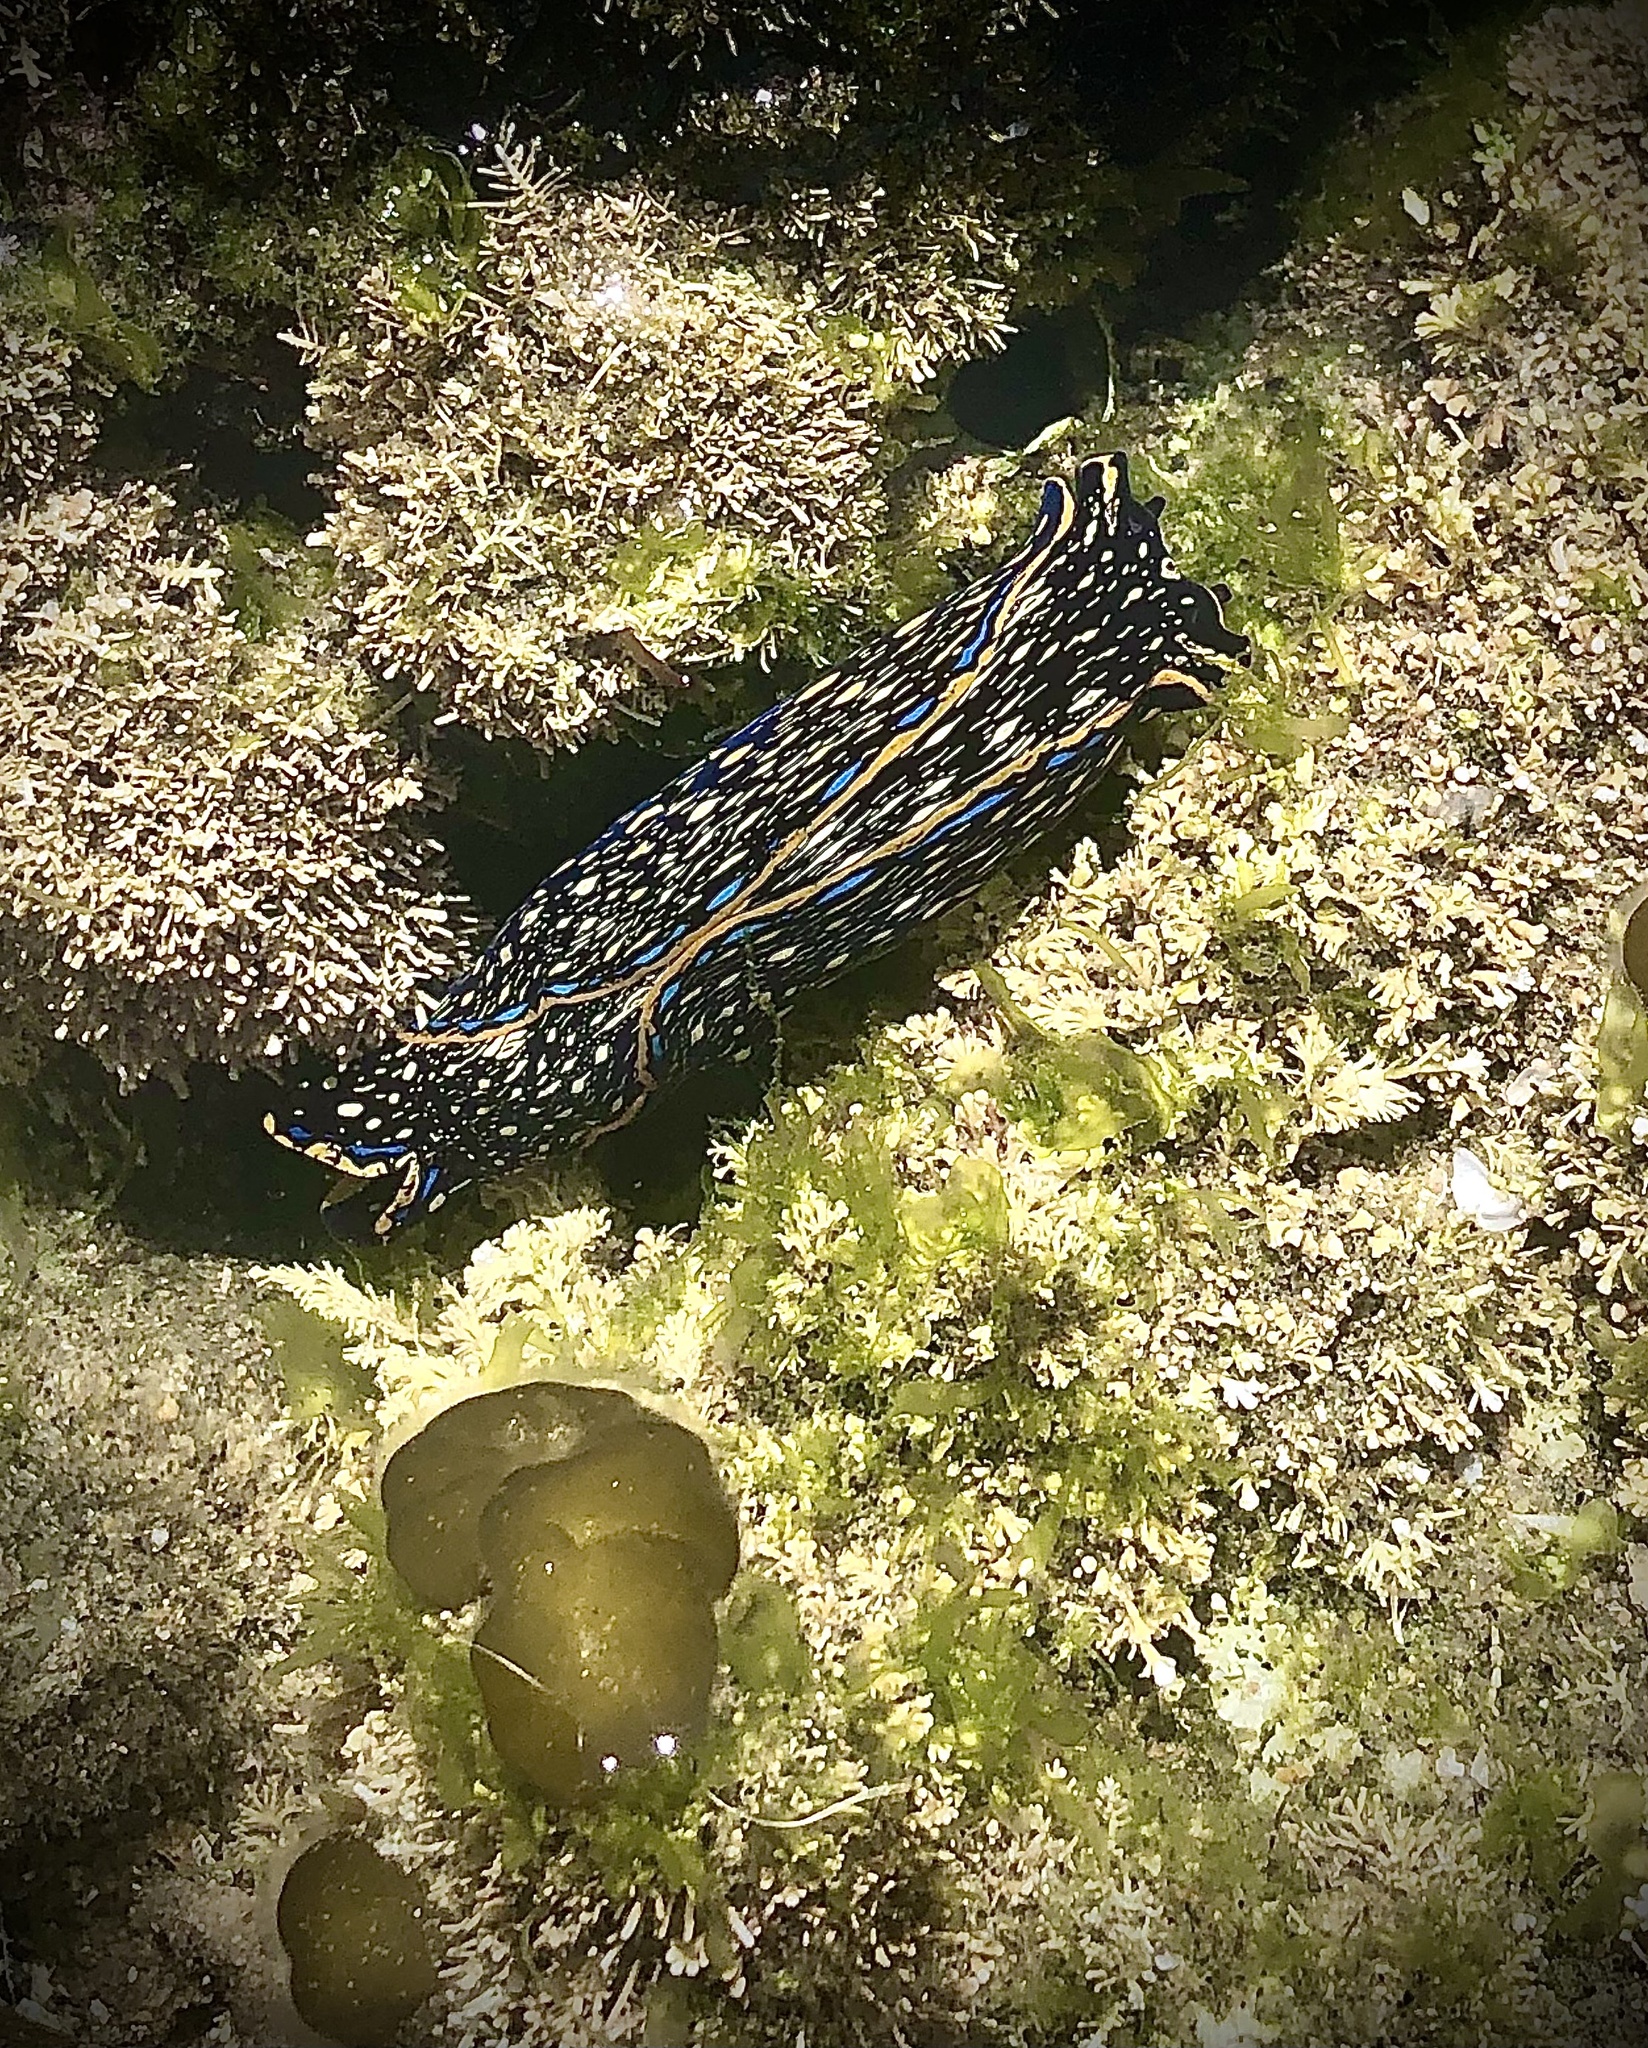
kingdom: Animalia
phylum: Mollusca
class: Gastropoda
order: Cephalaspidea
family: Aglajidae
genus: Navanax
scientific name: Navanax inermis
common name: California aglaja
